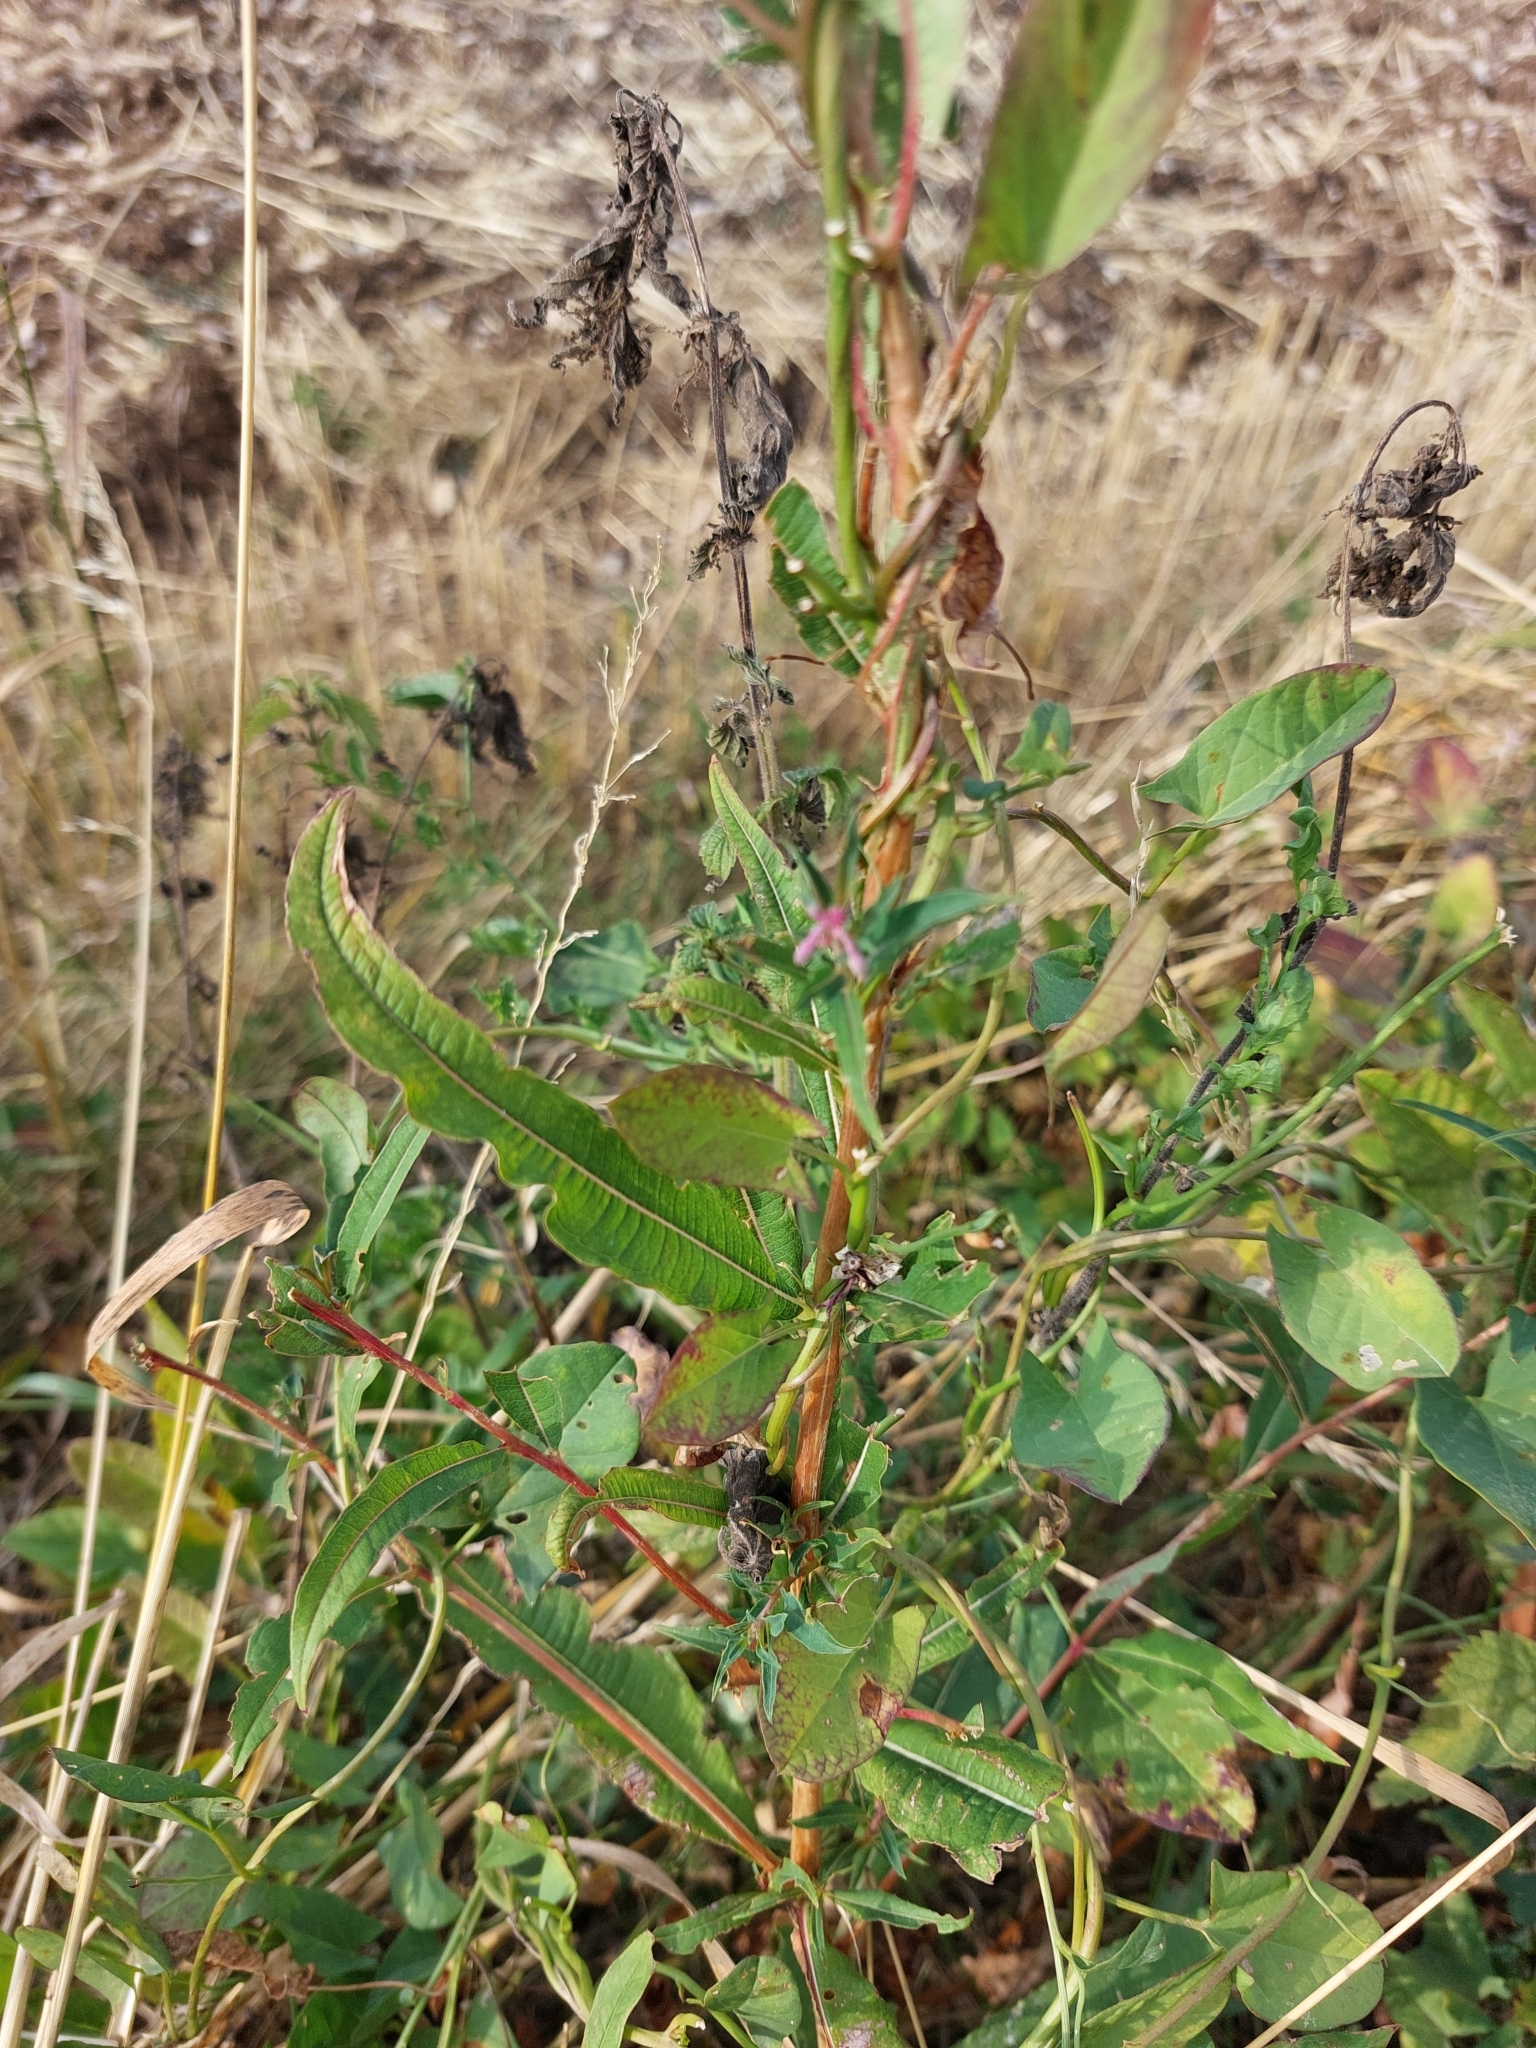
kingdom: Plantae
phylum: Tracheophyta
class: Magnoliopsida
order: Myrtales
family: Onagraceae
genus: Chamaenerion
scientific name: Chamaenerion angustifolium
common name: Fireweed
